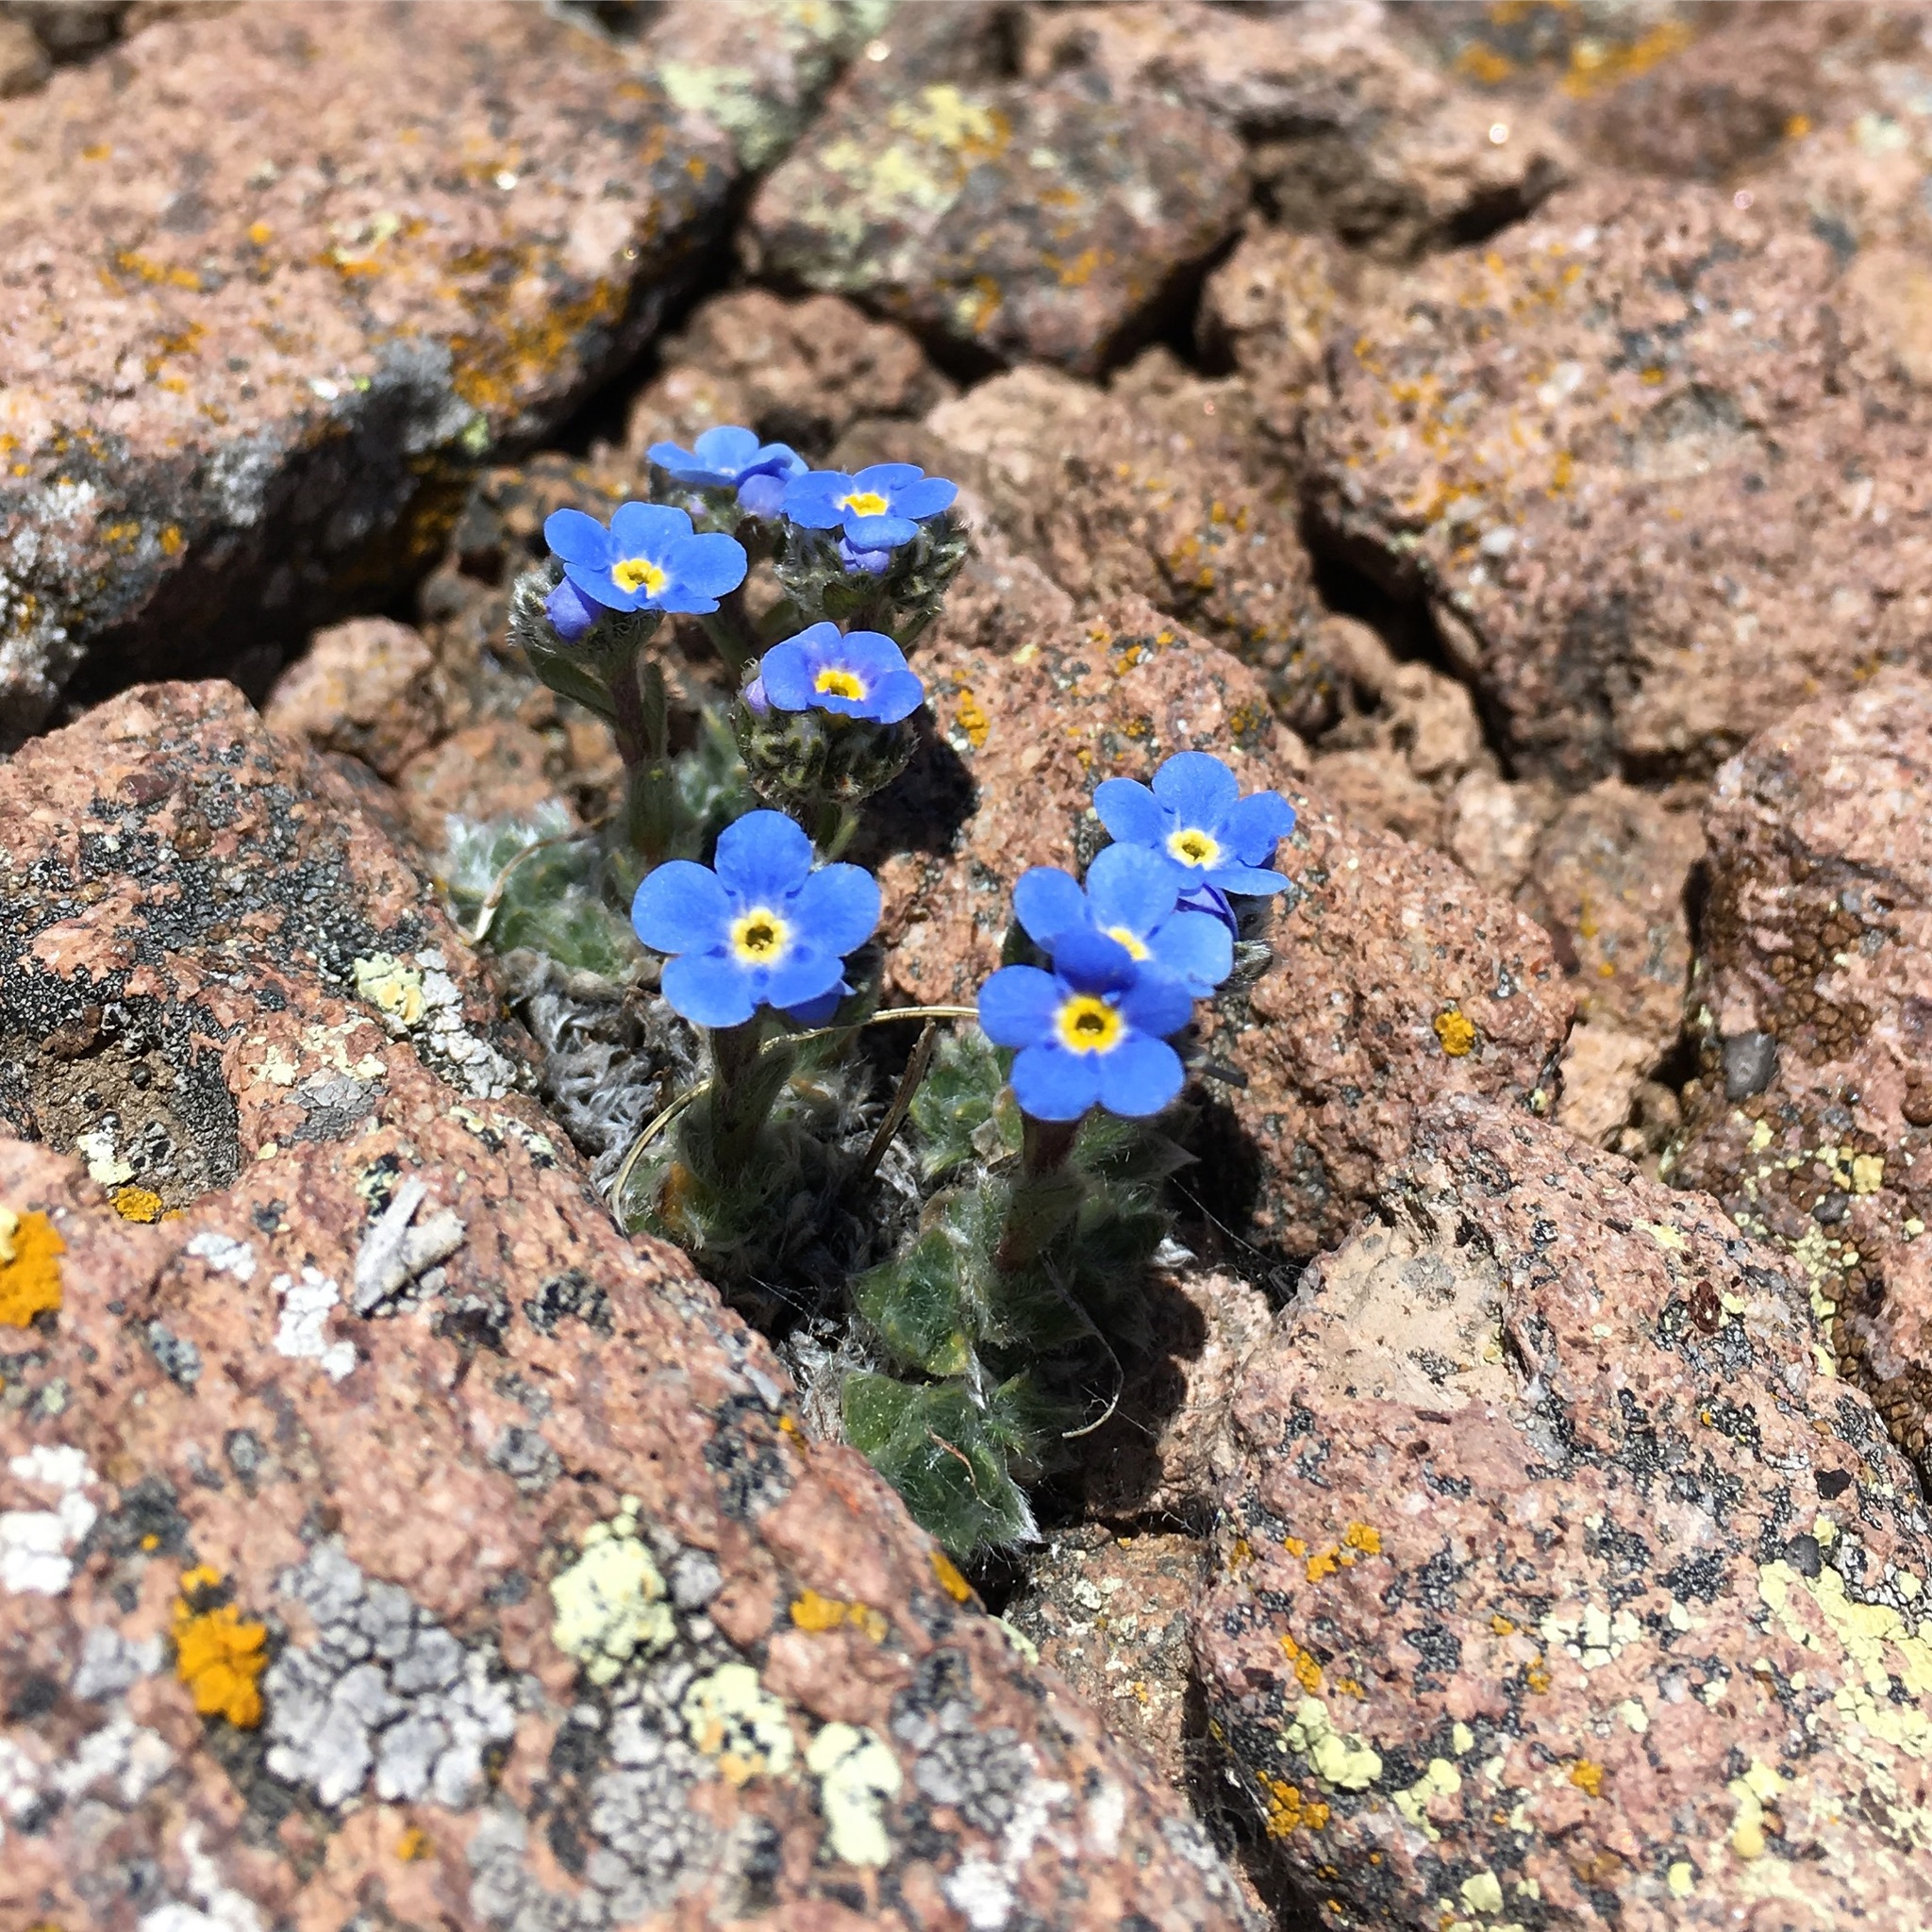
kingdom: Plantae
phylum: Tracheophyta
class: Magnoliopsida
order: Boraginales
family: Boraginaceae
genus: Eritrichium
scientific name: Eritrichium argenteum
